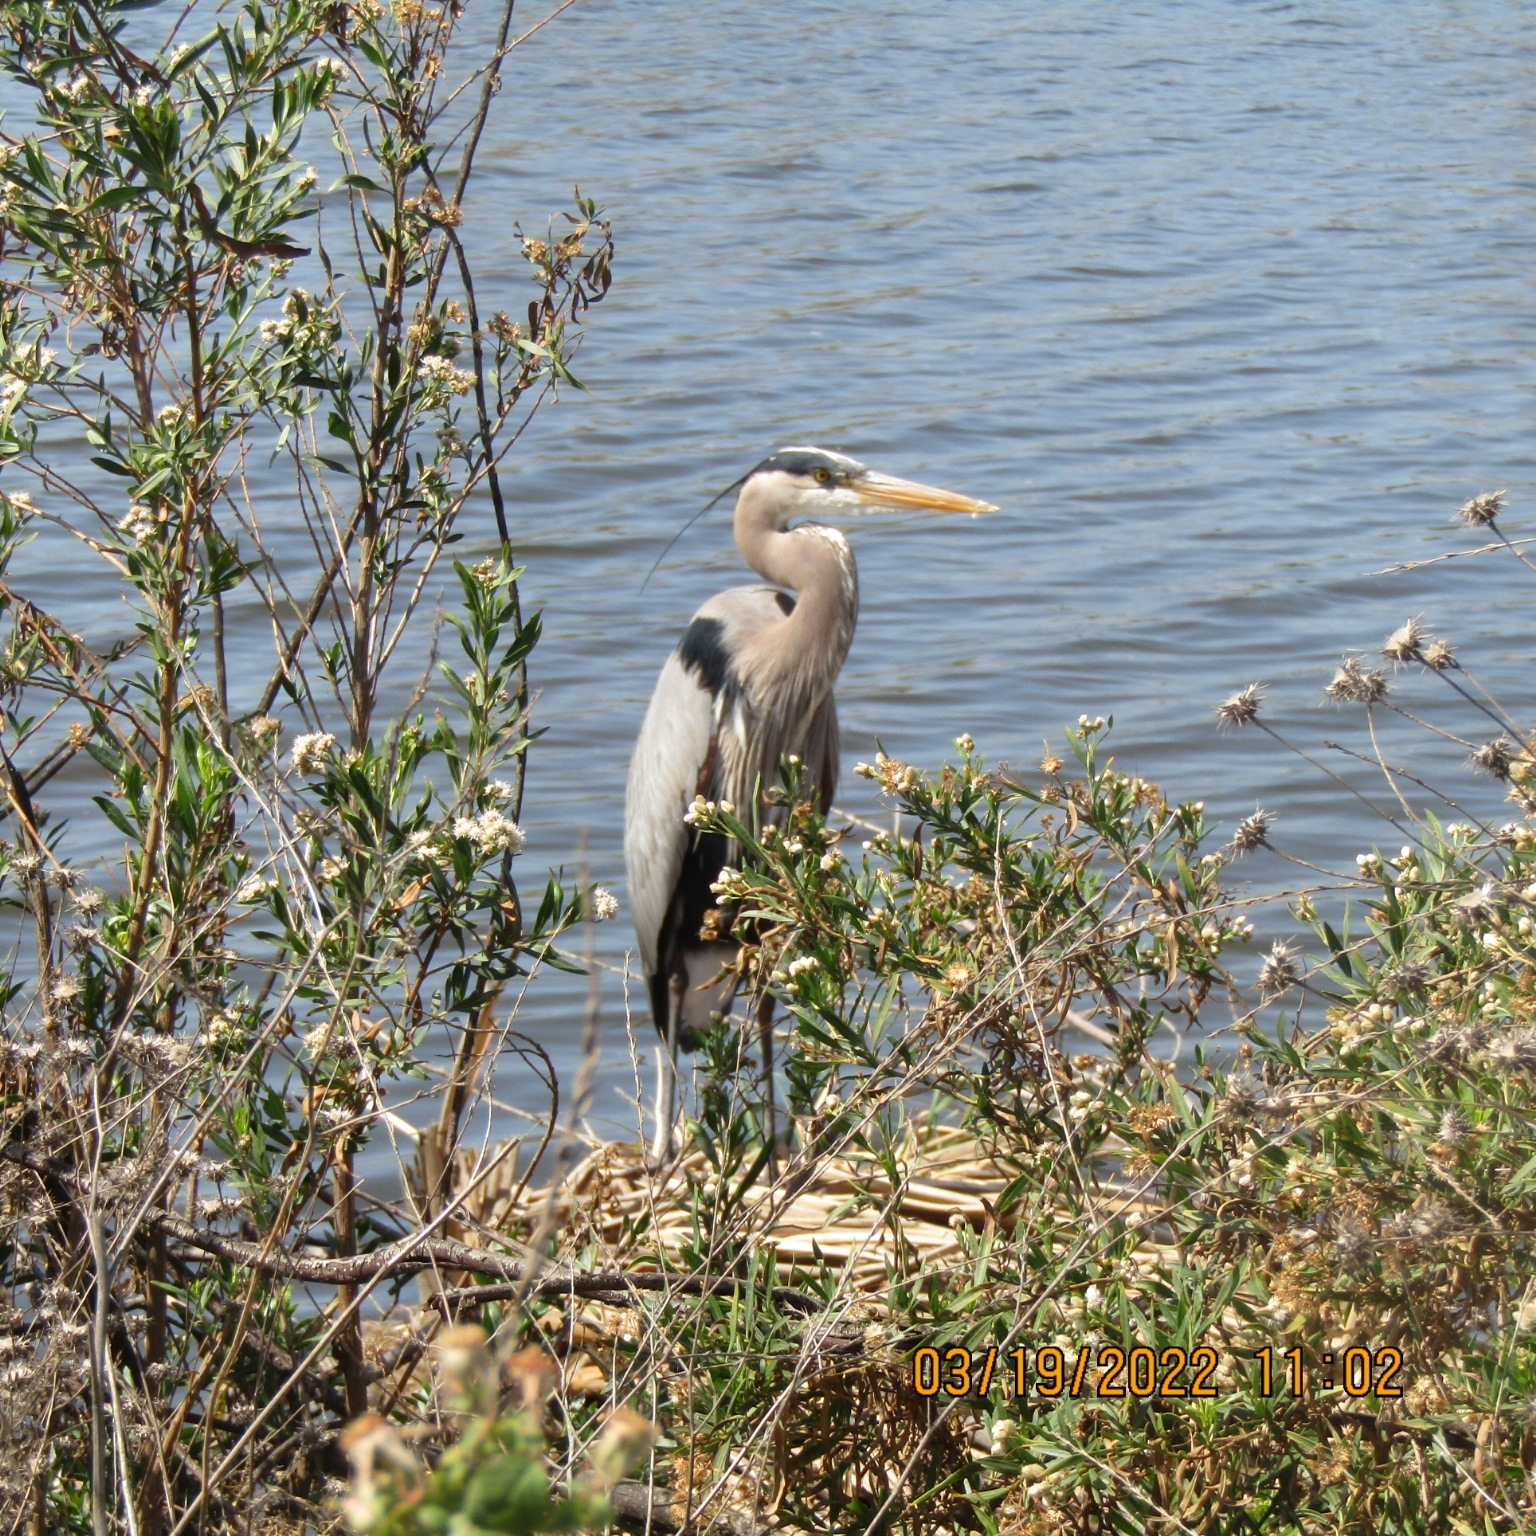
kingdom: Animalia
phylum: Chordata
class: Aves
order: Pelecaniformes
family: Ardeidae
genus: Ardea
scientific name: Ardea herodias
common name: Great blue heron
